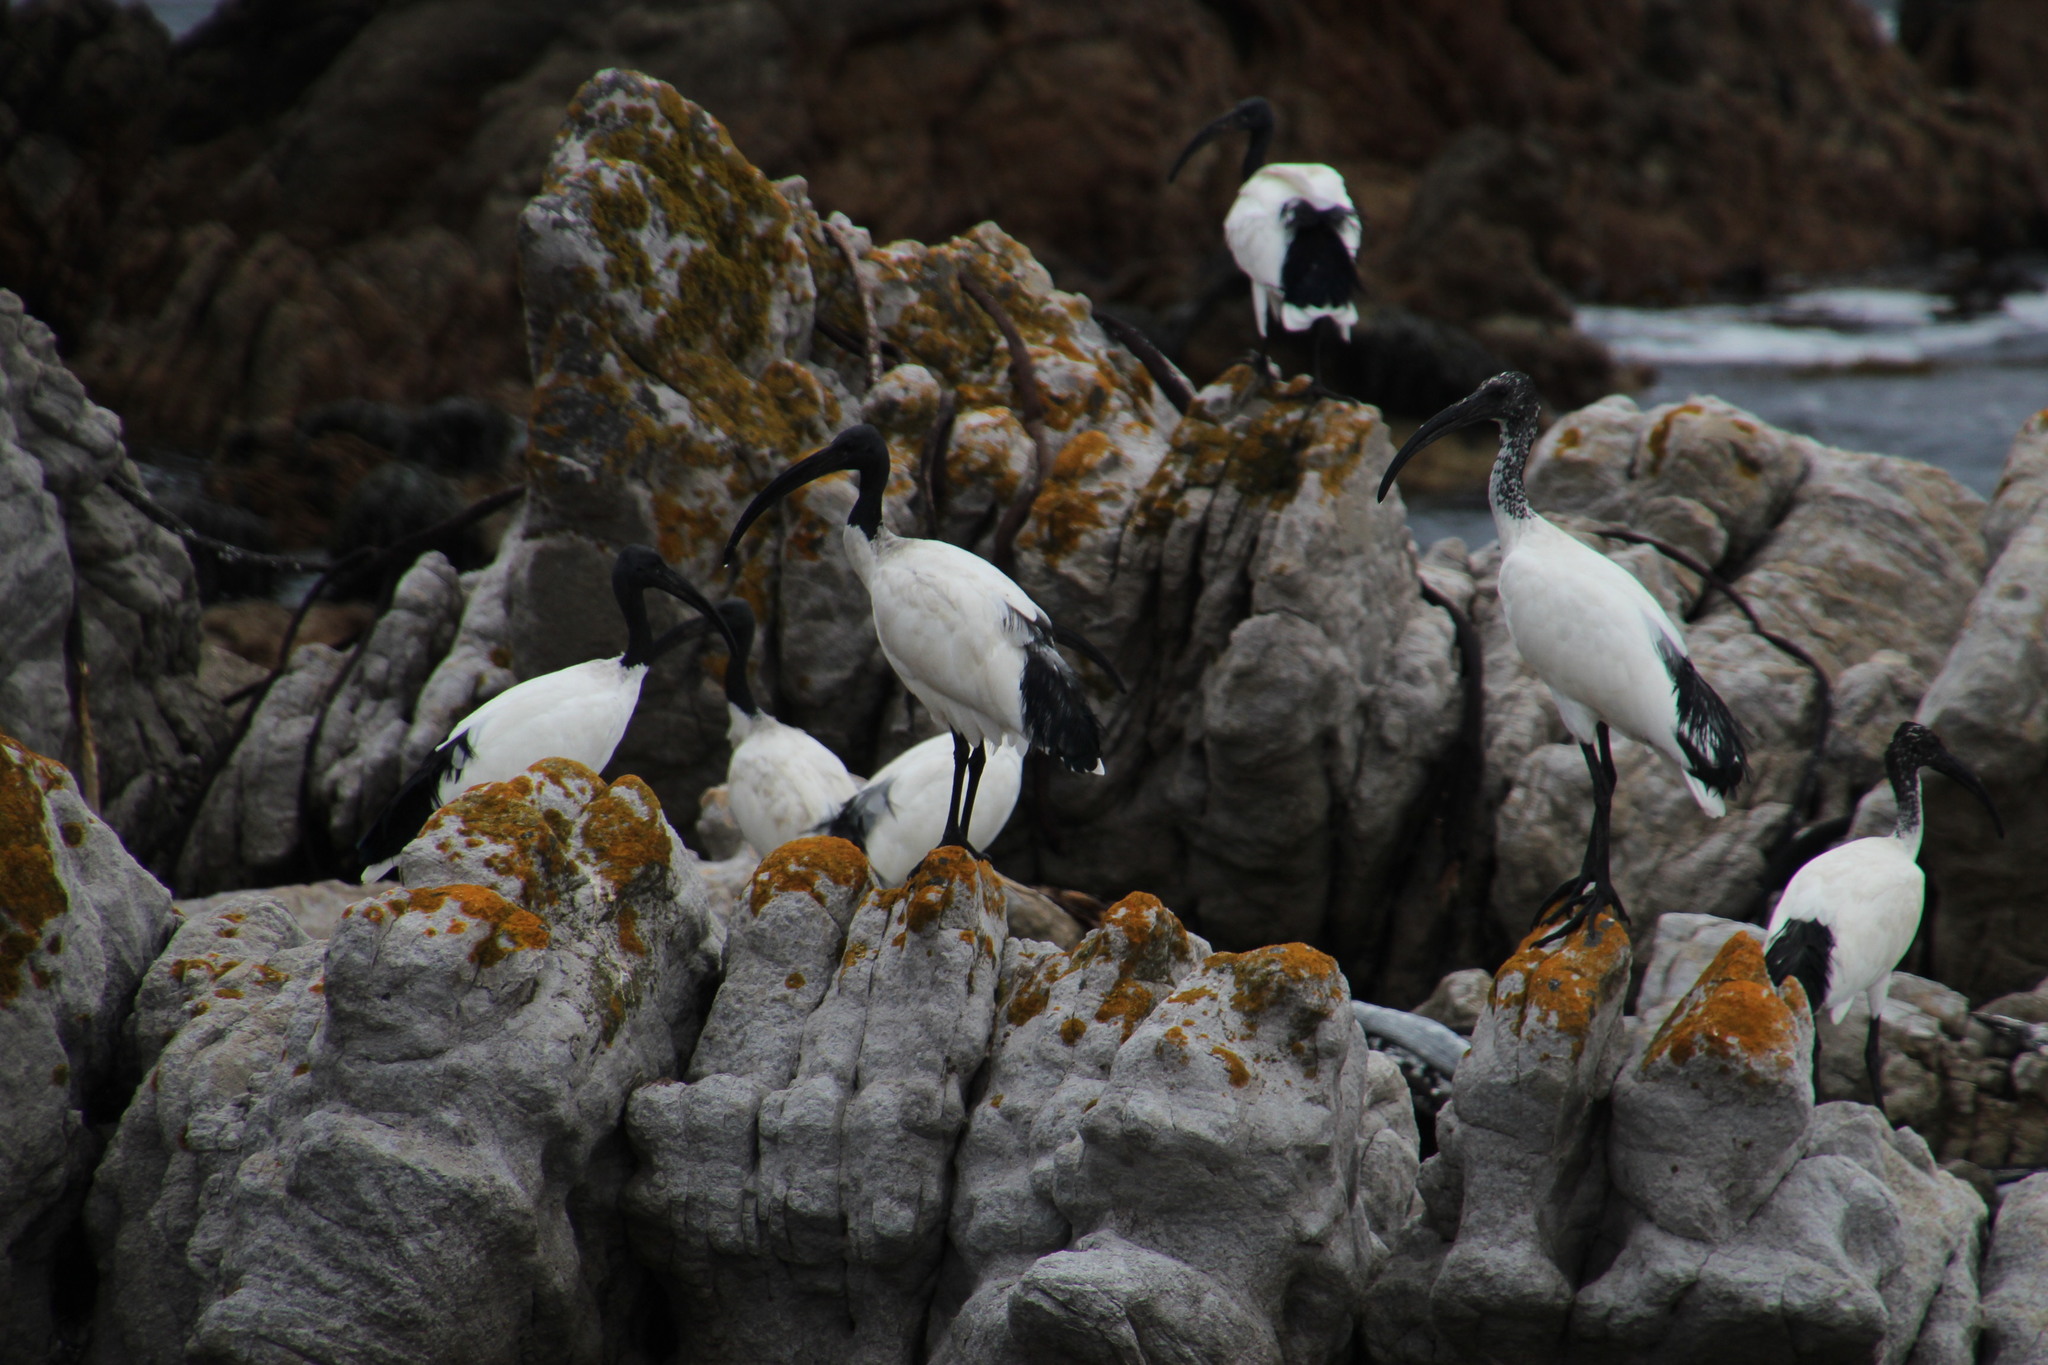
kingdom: Animalia
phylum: Chordata
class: Aves
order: Pelecaniformes
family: Threskiornithidae
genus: Threskiornis
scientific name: Threskiornis aethiopicus
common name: Sacred ibis
